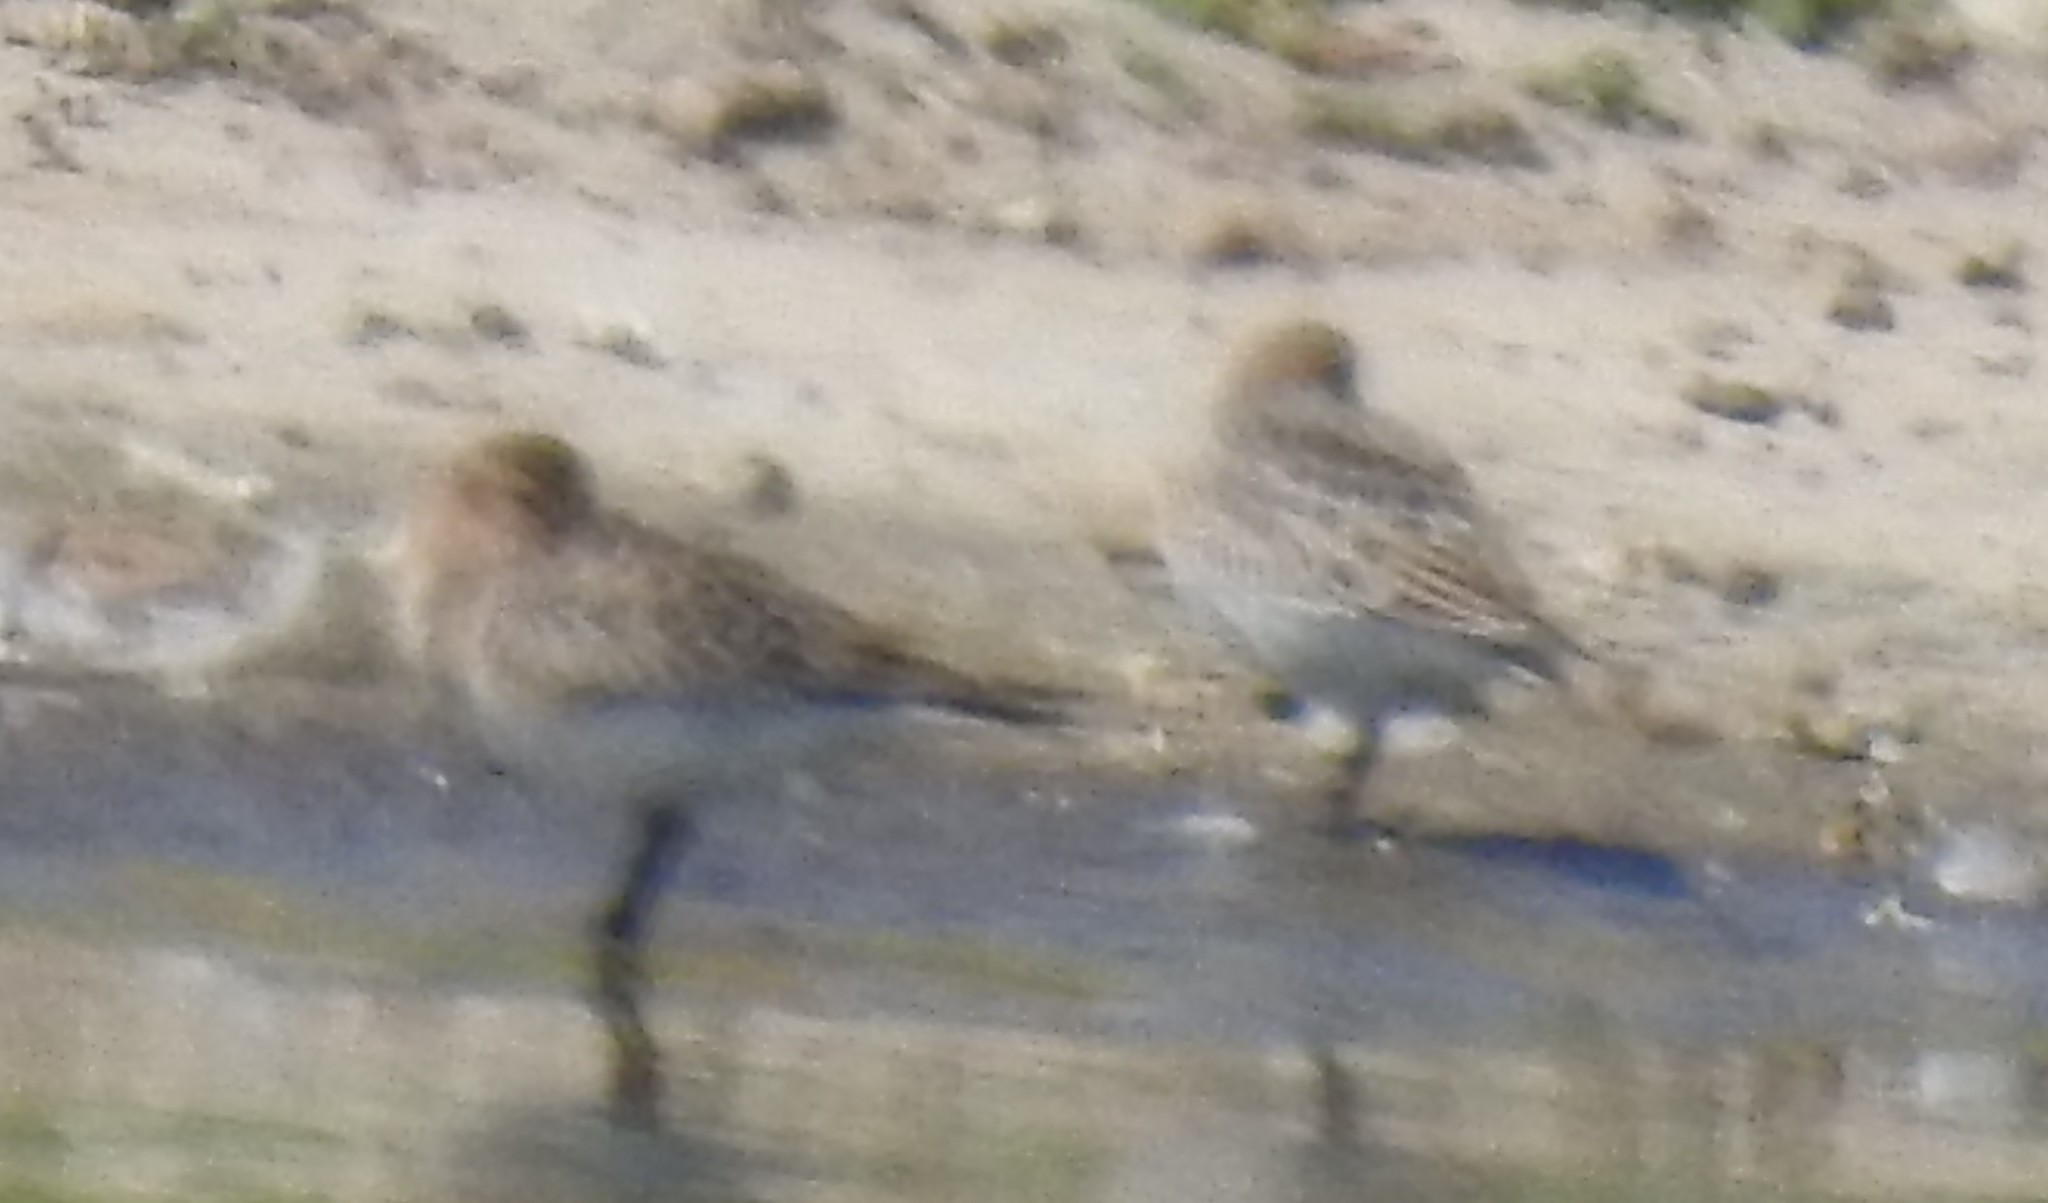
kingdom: Animalia
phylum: Chordata
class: Aves
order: Charadriiformes
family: Scolopacidae
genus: Calidris
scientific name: Calidris bairdii
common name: Baird's sandpiper
